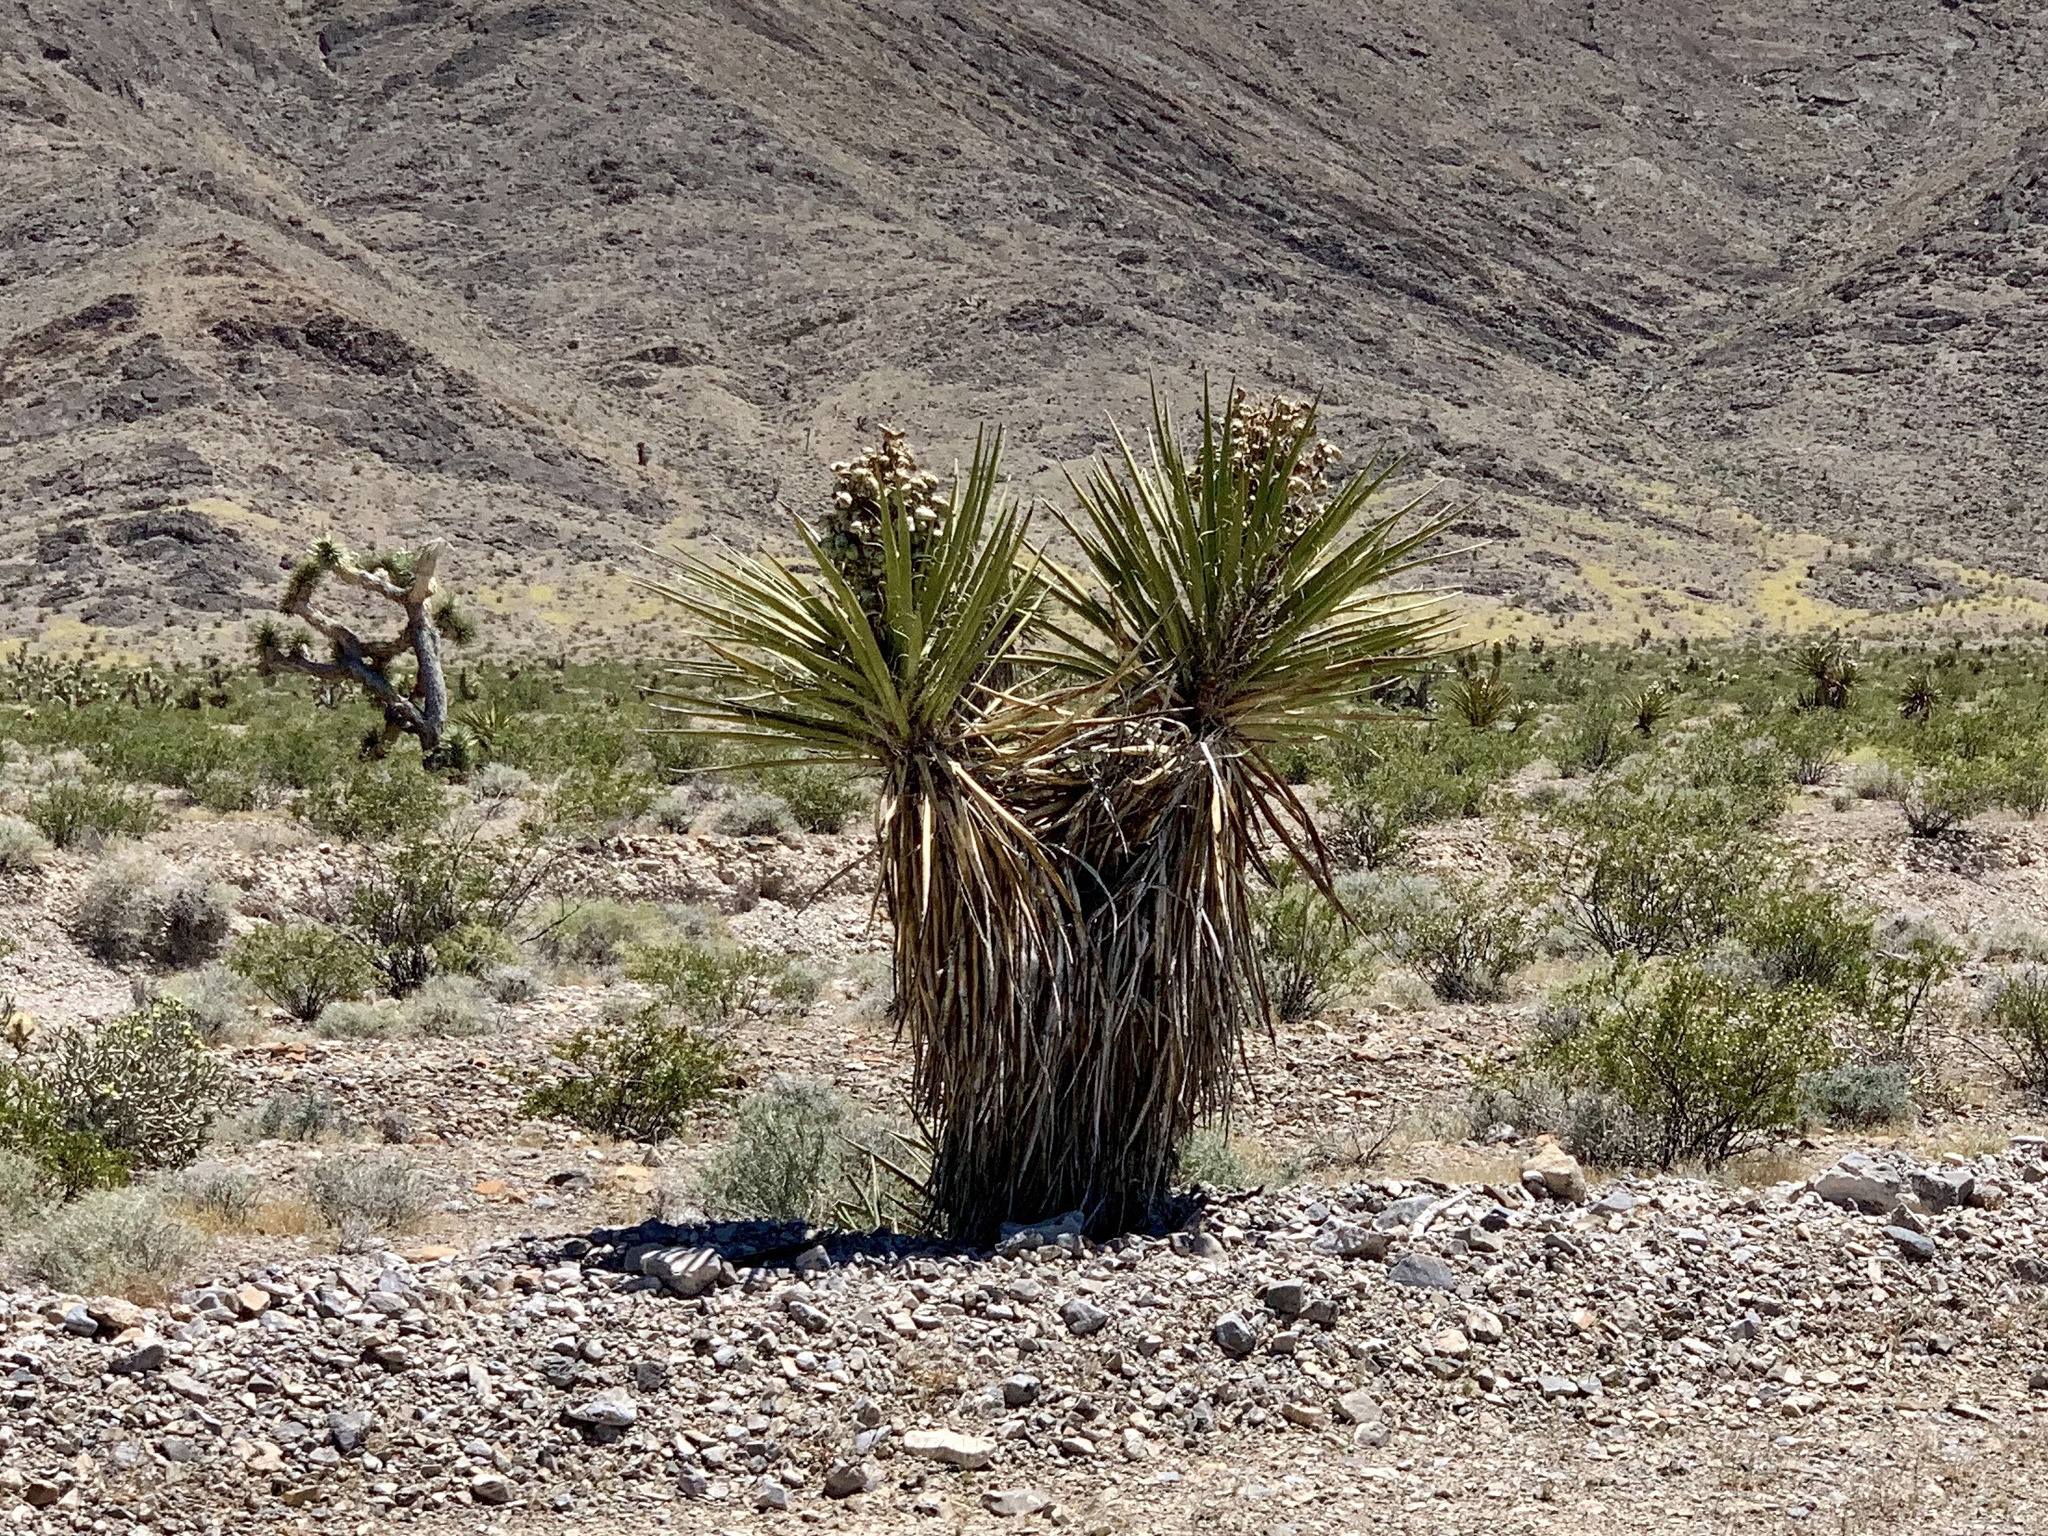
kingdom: Plantae
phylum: Tracheophyta
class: Liliopsida
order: Asparagales
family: Asparagaceae
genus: Yucca
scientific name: Yucca schidigera
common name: Mojave yucca
